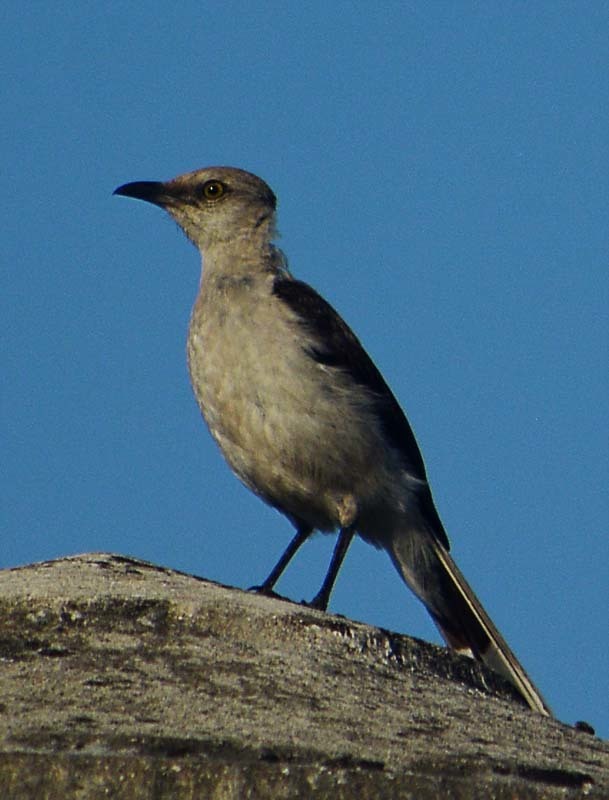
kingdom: Animalia
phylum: Chordata
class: Aves
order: Passeriformes
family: Mimidae
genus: Mimus
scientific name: Mimus gilvus
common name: Tropical mockingbird
